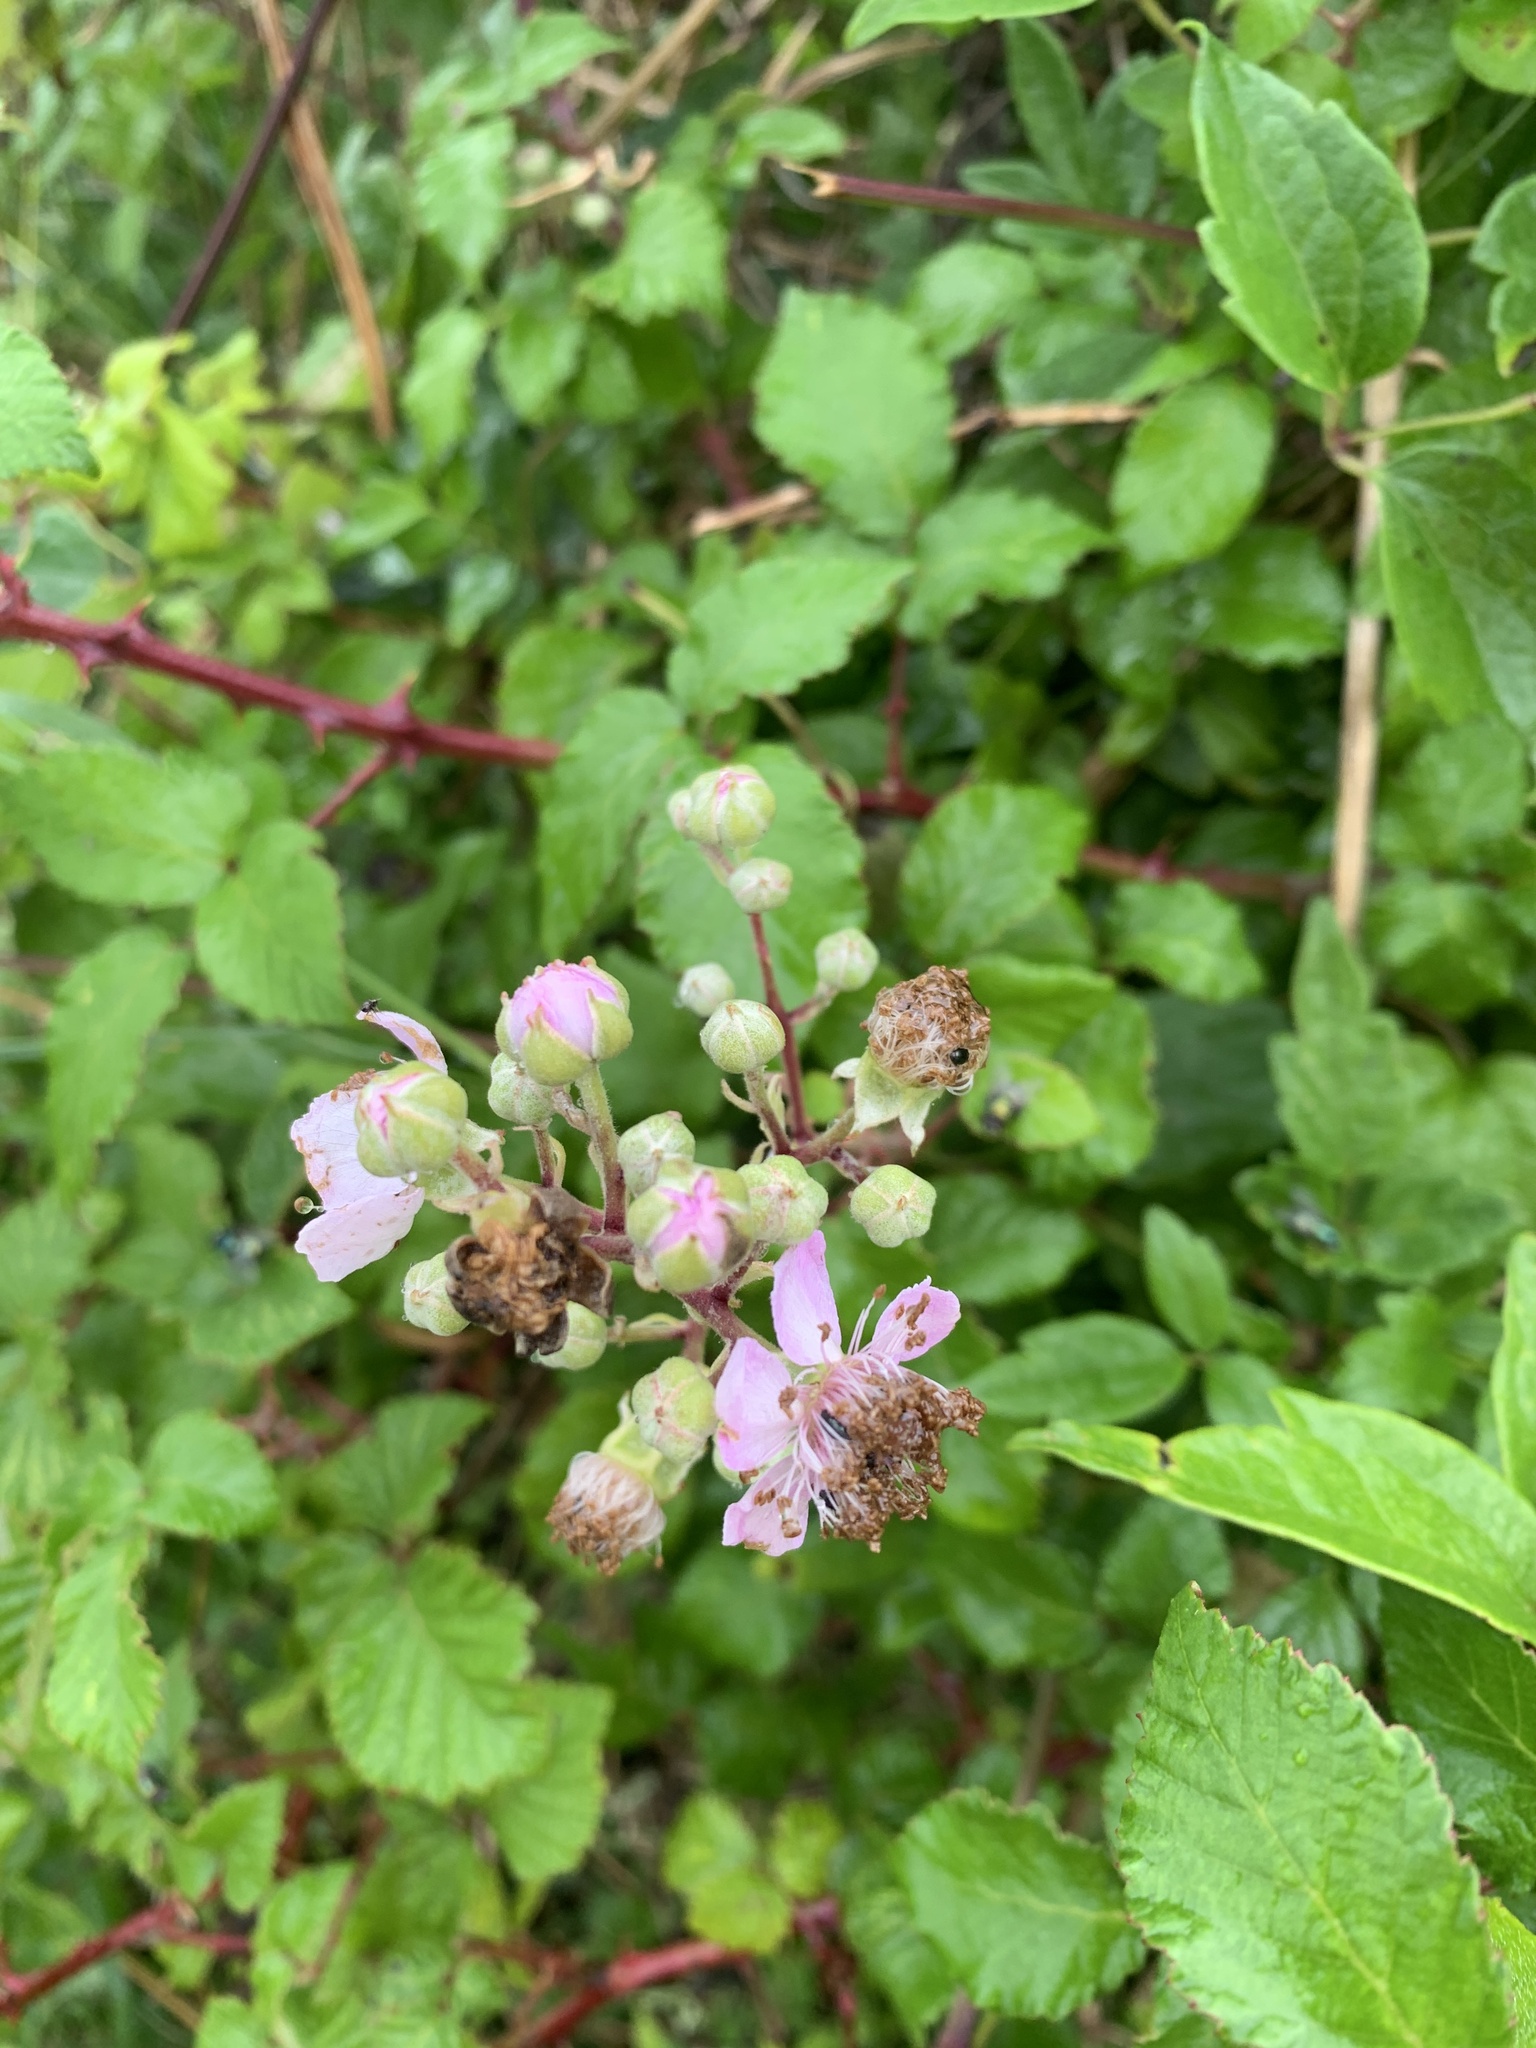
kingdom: Plantae
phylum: Tracheophyta
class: Magnoliopsida
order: Rosales
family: Rosaceae
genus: Rubus
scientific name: Rubus fruticosus
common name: Blackberry, bramble
